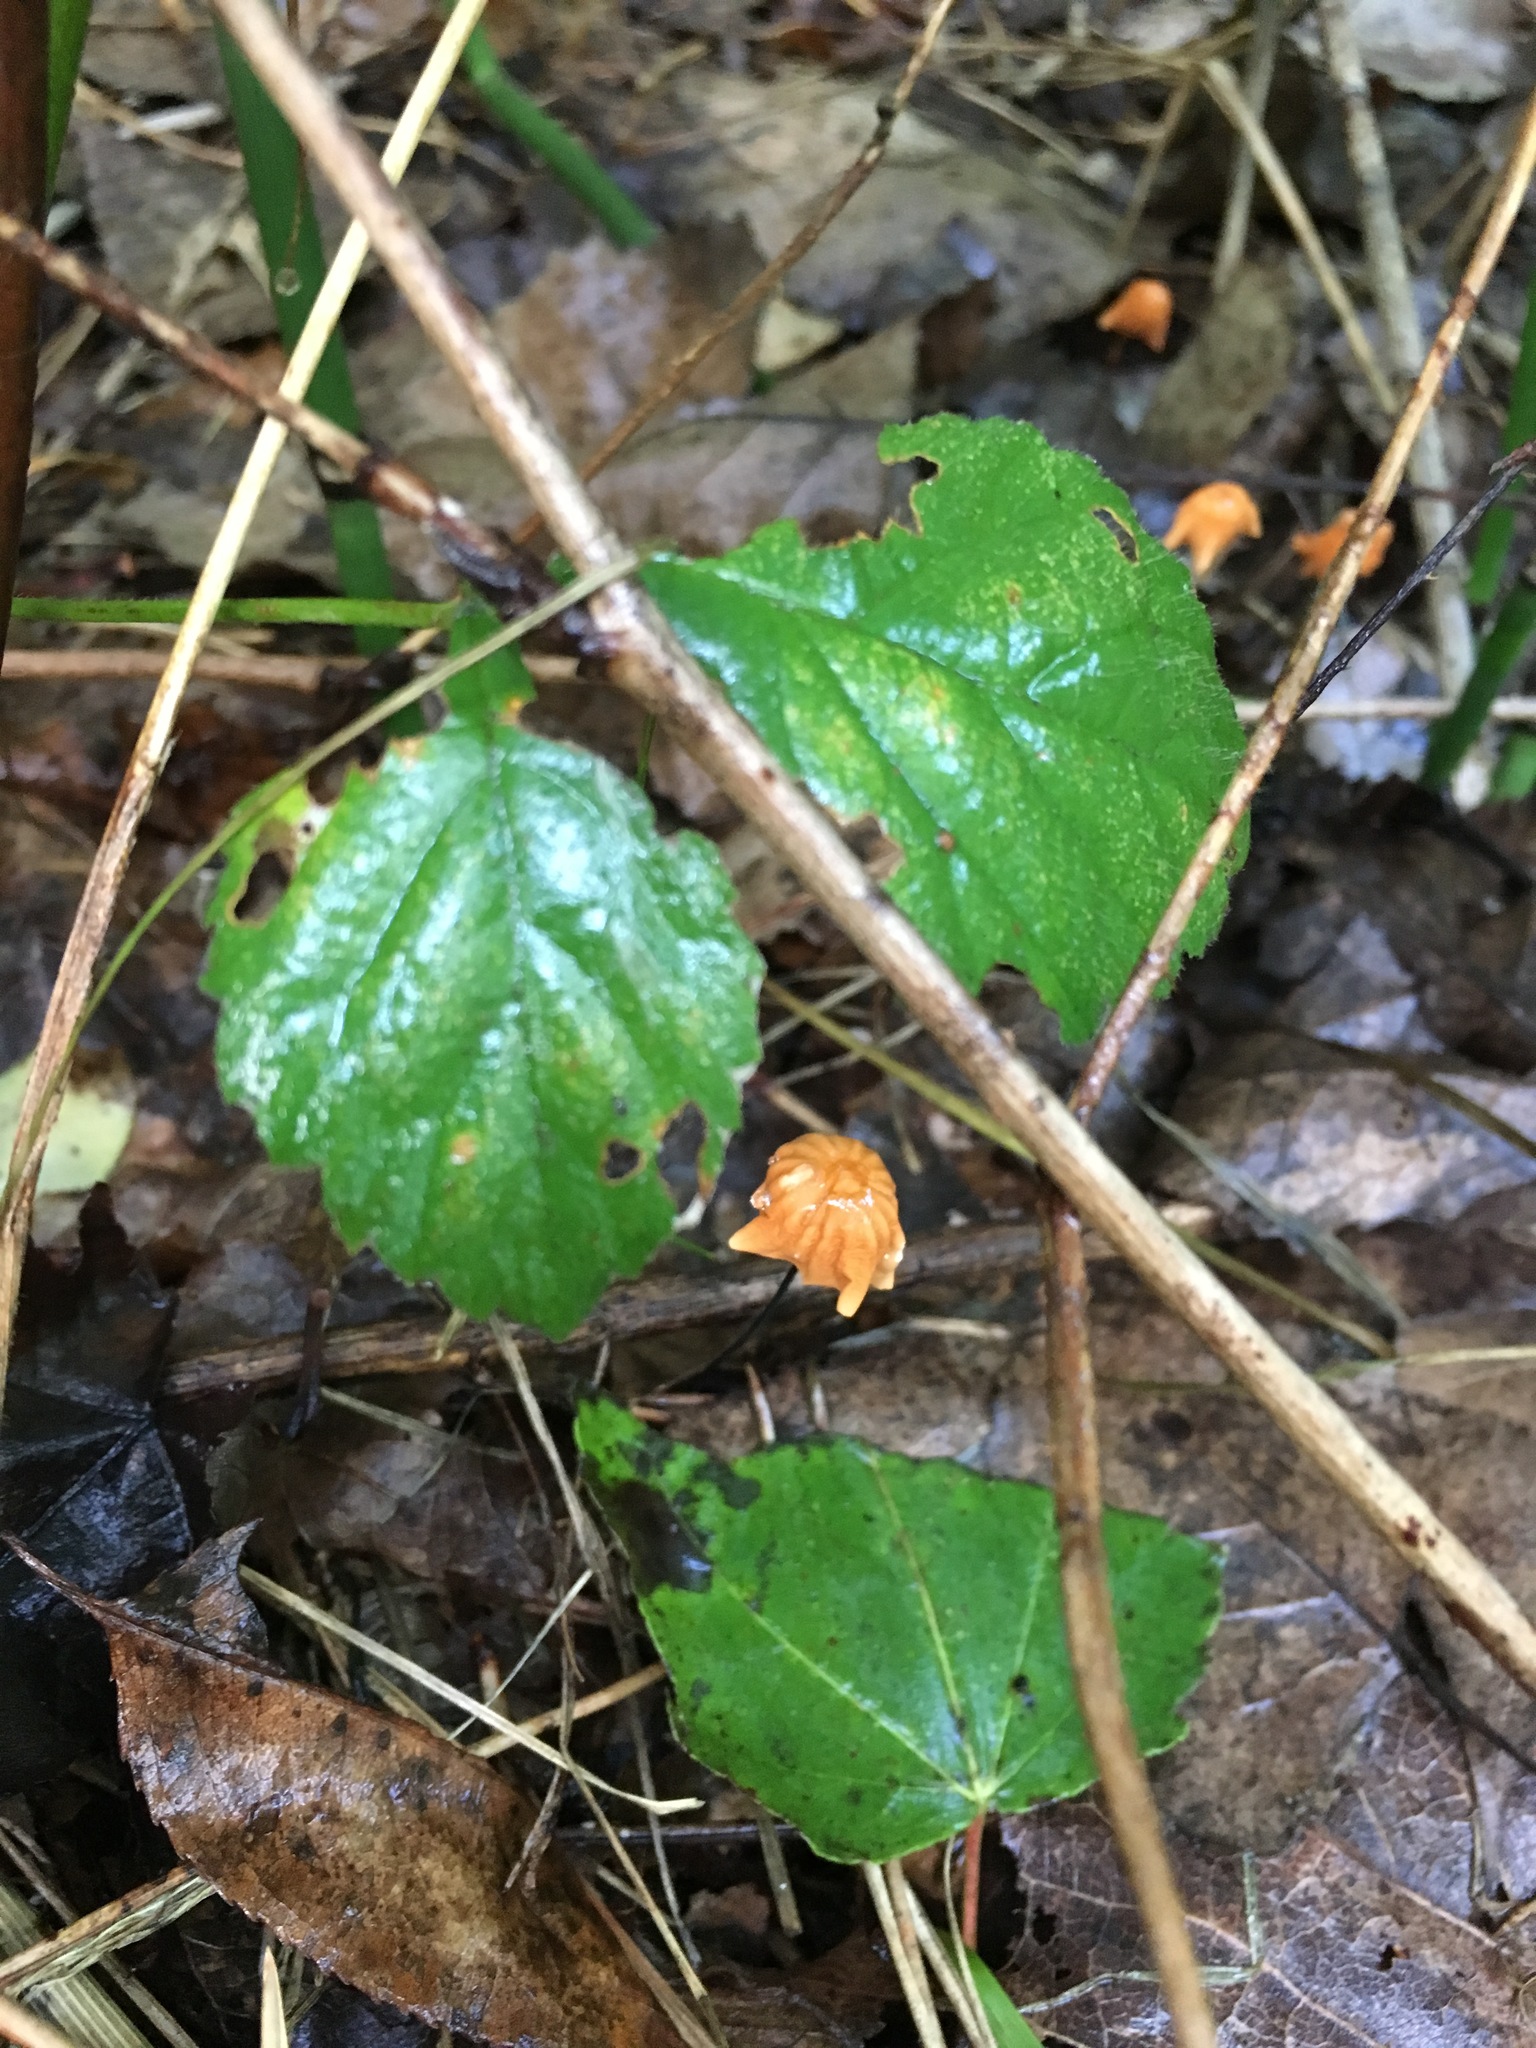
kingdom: Fungi
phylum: Basidiomycota
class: Agaricomycetes
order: Agaricales
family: Marasmiaceae
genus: Marasmius
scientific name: Marasmius siccus
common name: Orange pinwheel
